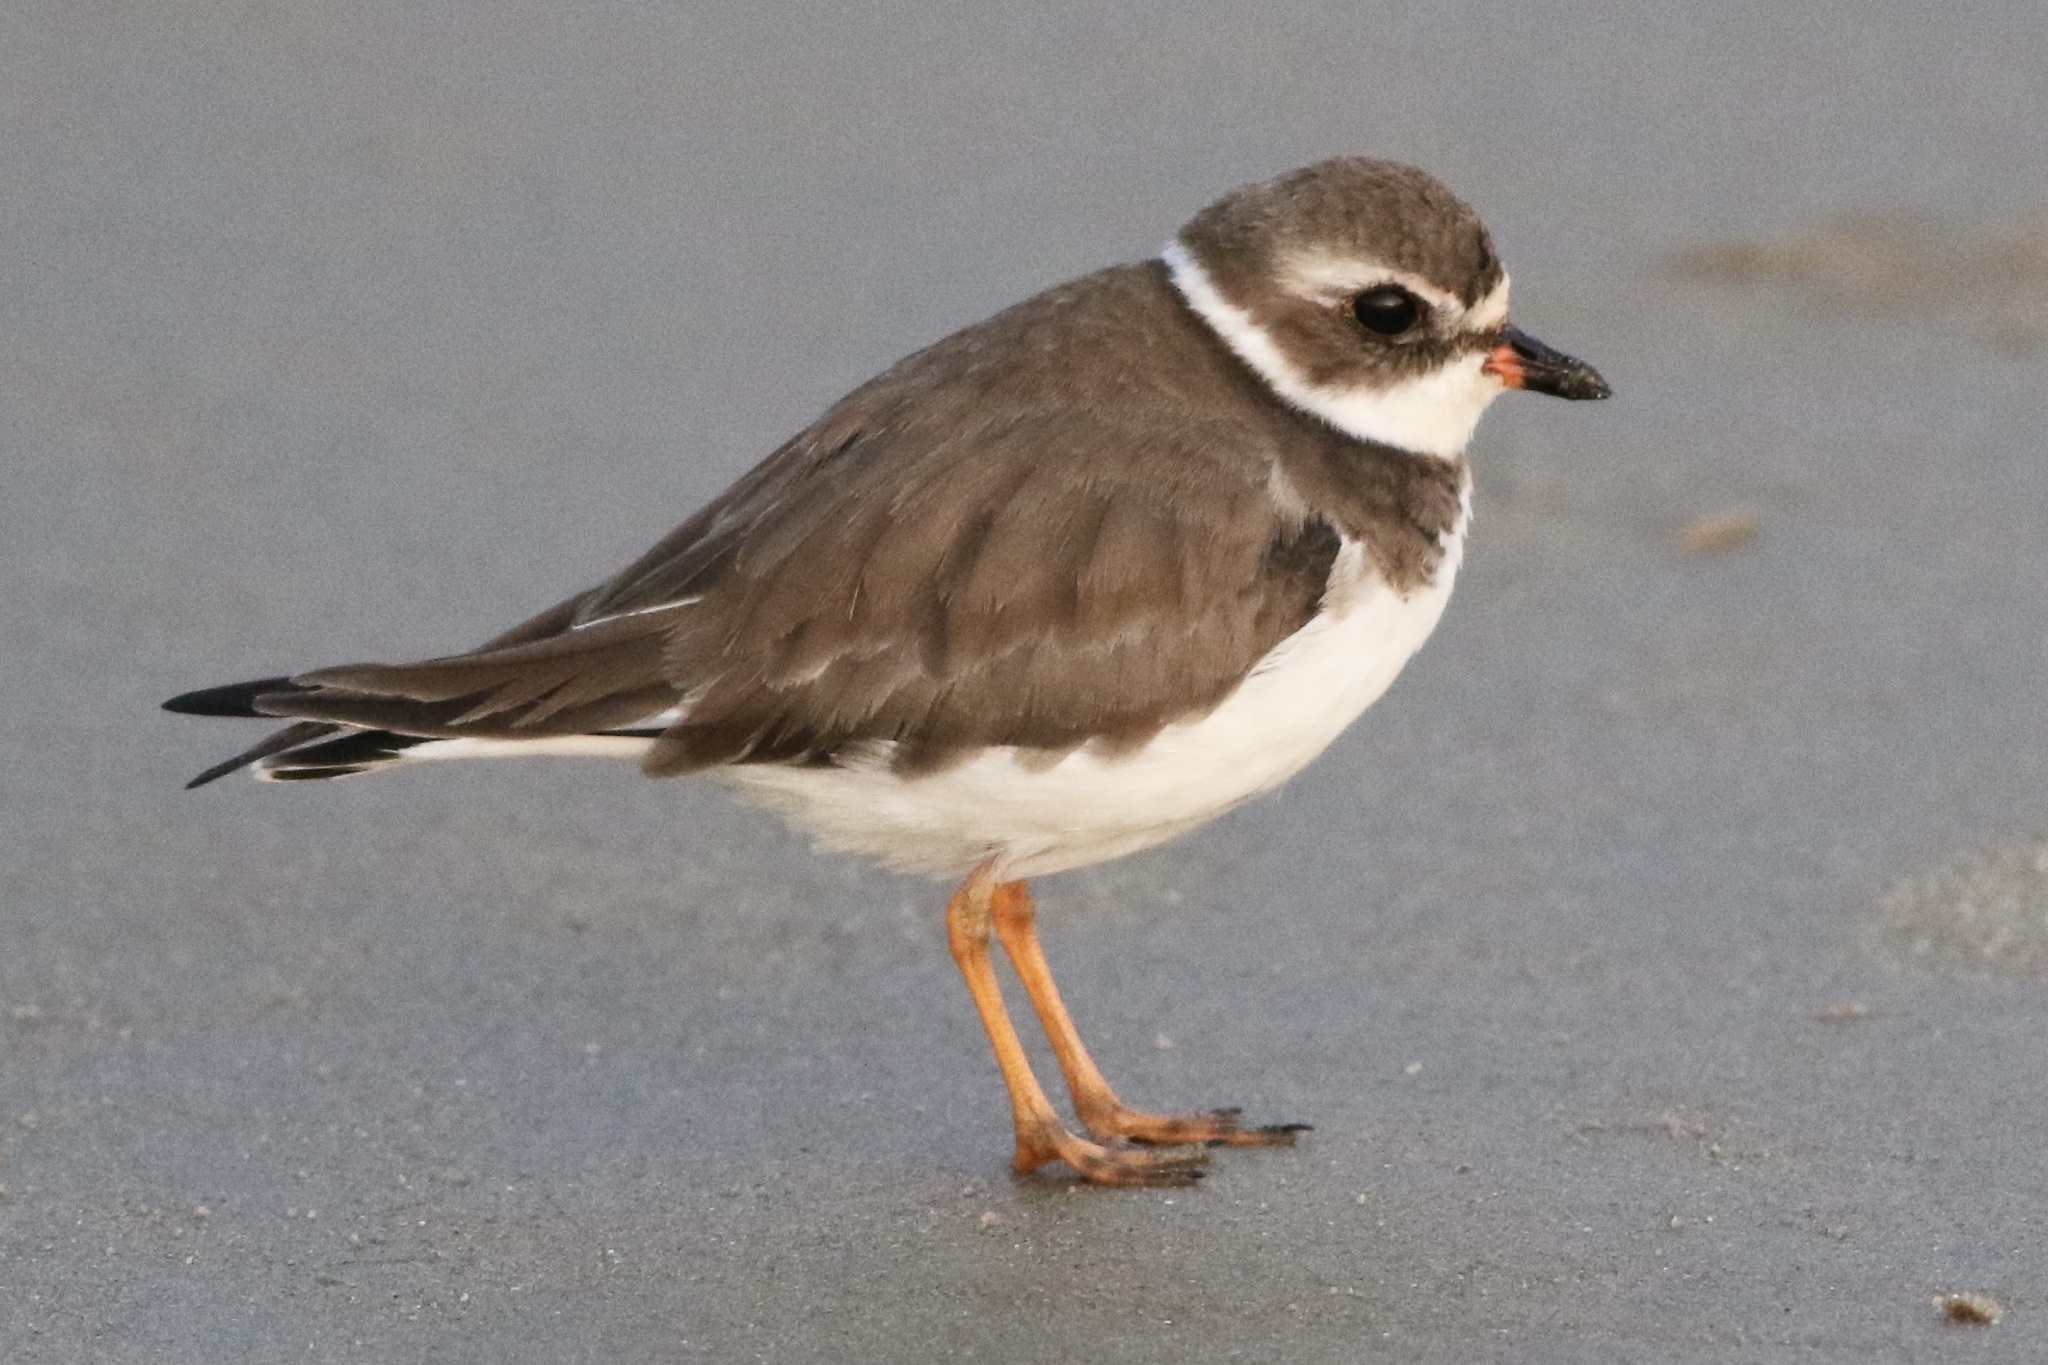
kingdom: Animalia
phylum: Chordata
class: Aves
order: Charadriiformes
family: Charadriidae
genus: Charadrius
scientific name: Charadrius semipalmatus
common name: Semipalmated plover
